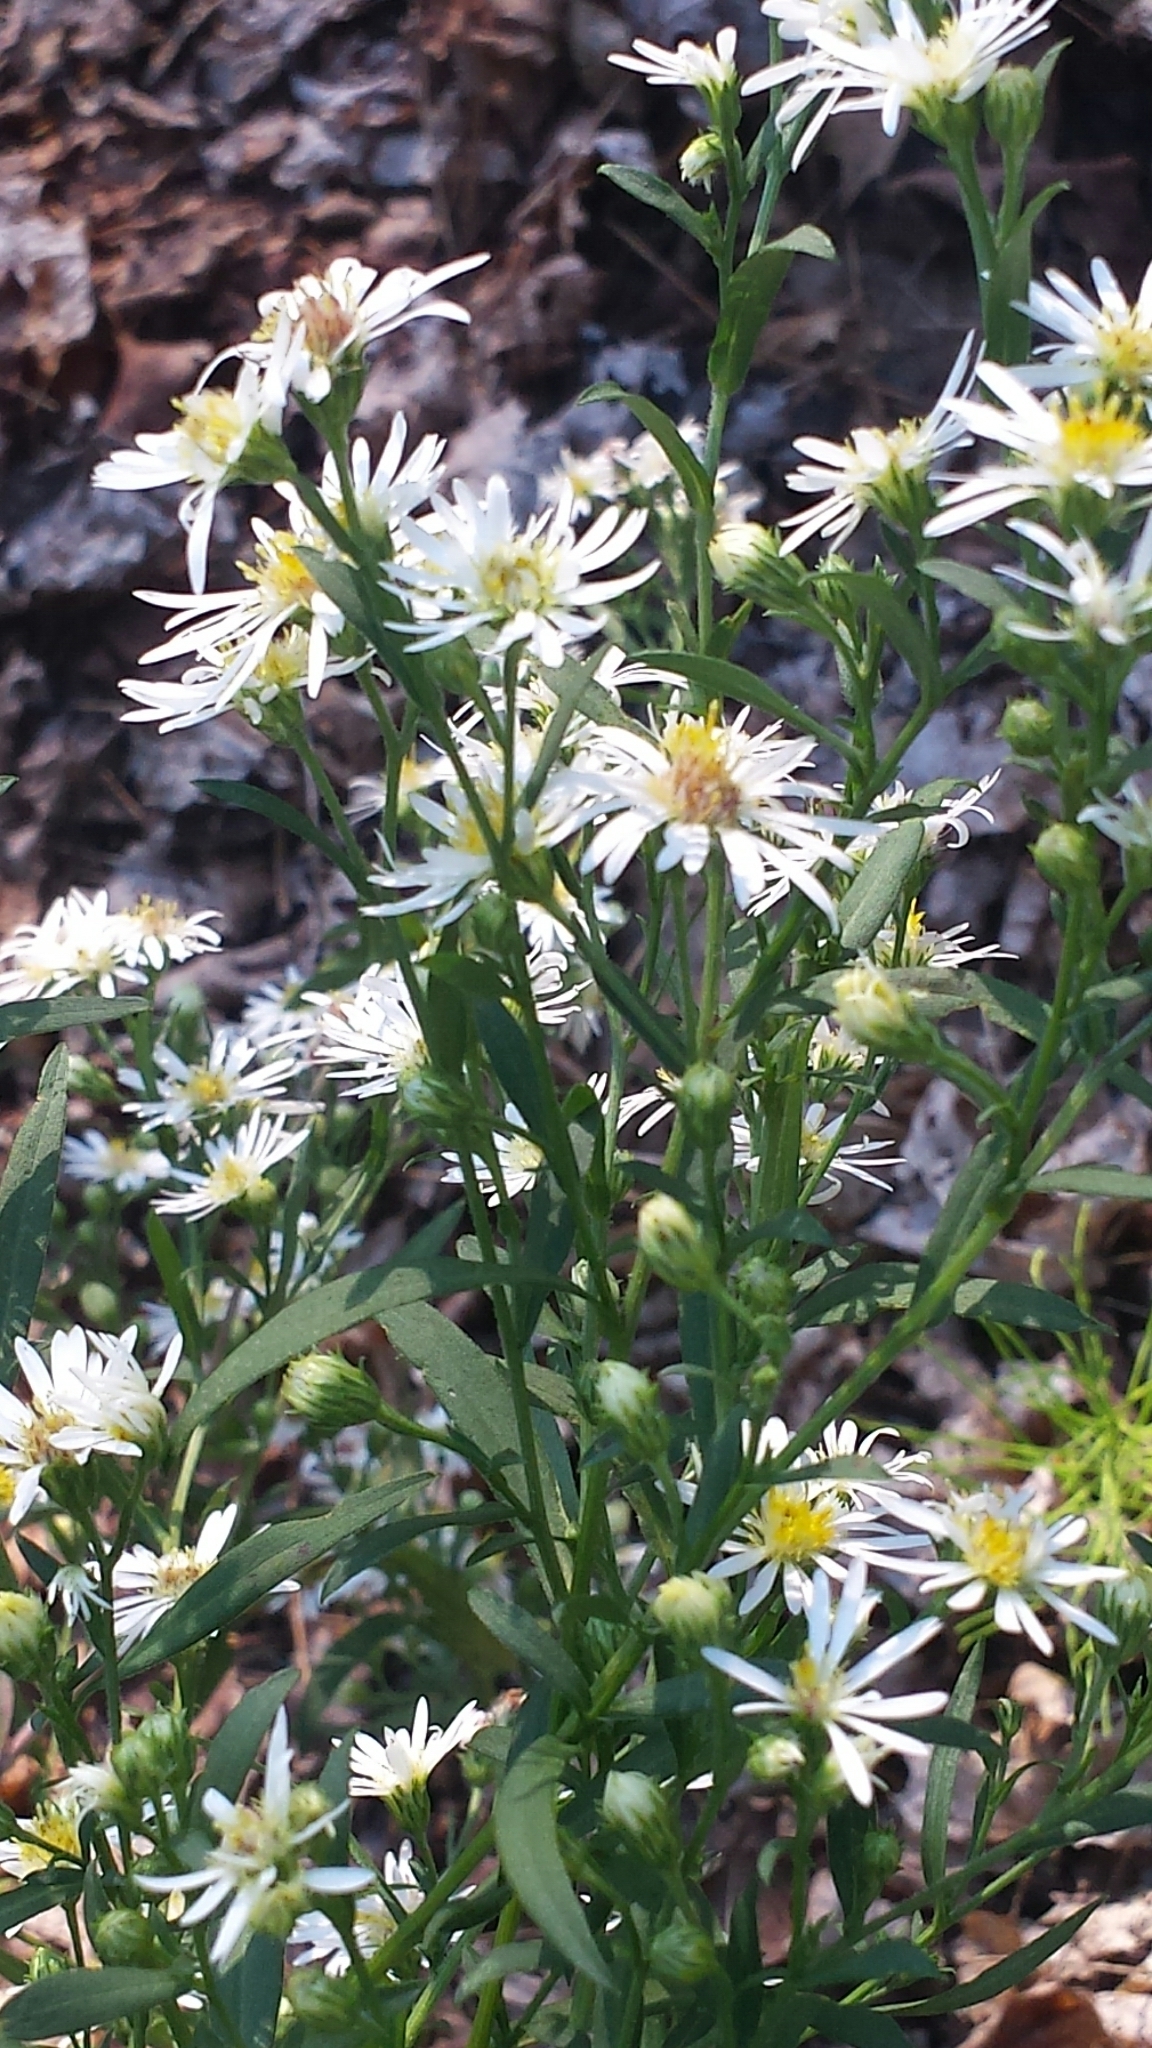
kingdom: Plantae
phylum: Tracheophyta
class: Magnoliopsida
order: Asterales
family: Asteraceae
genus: Symphyotrichum
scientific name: Symphyotrichum lanceolatum
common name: Panicled aster
